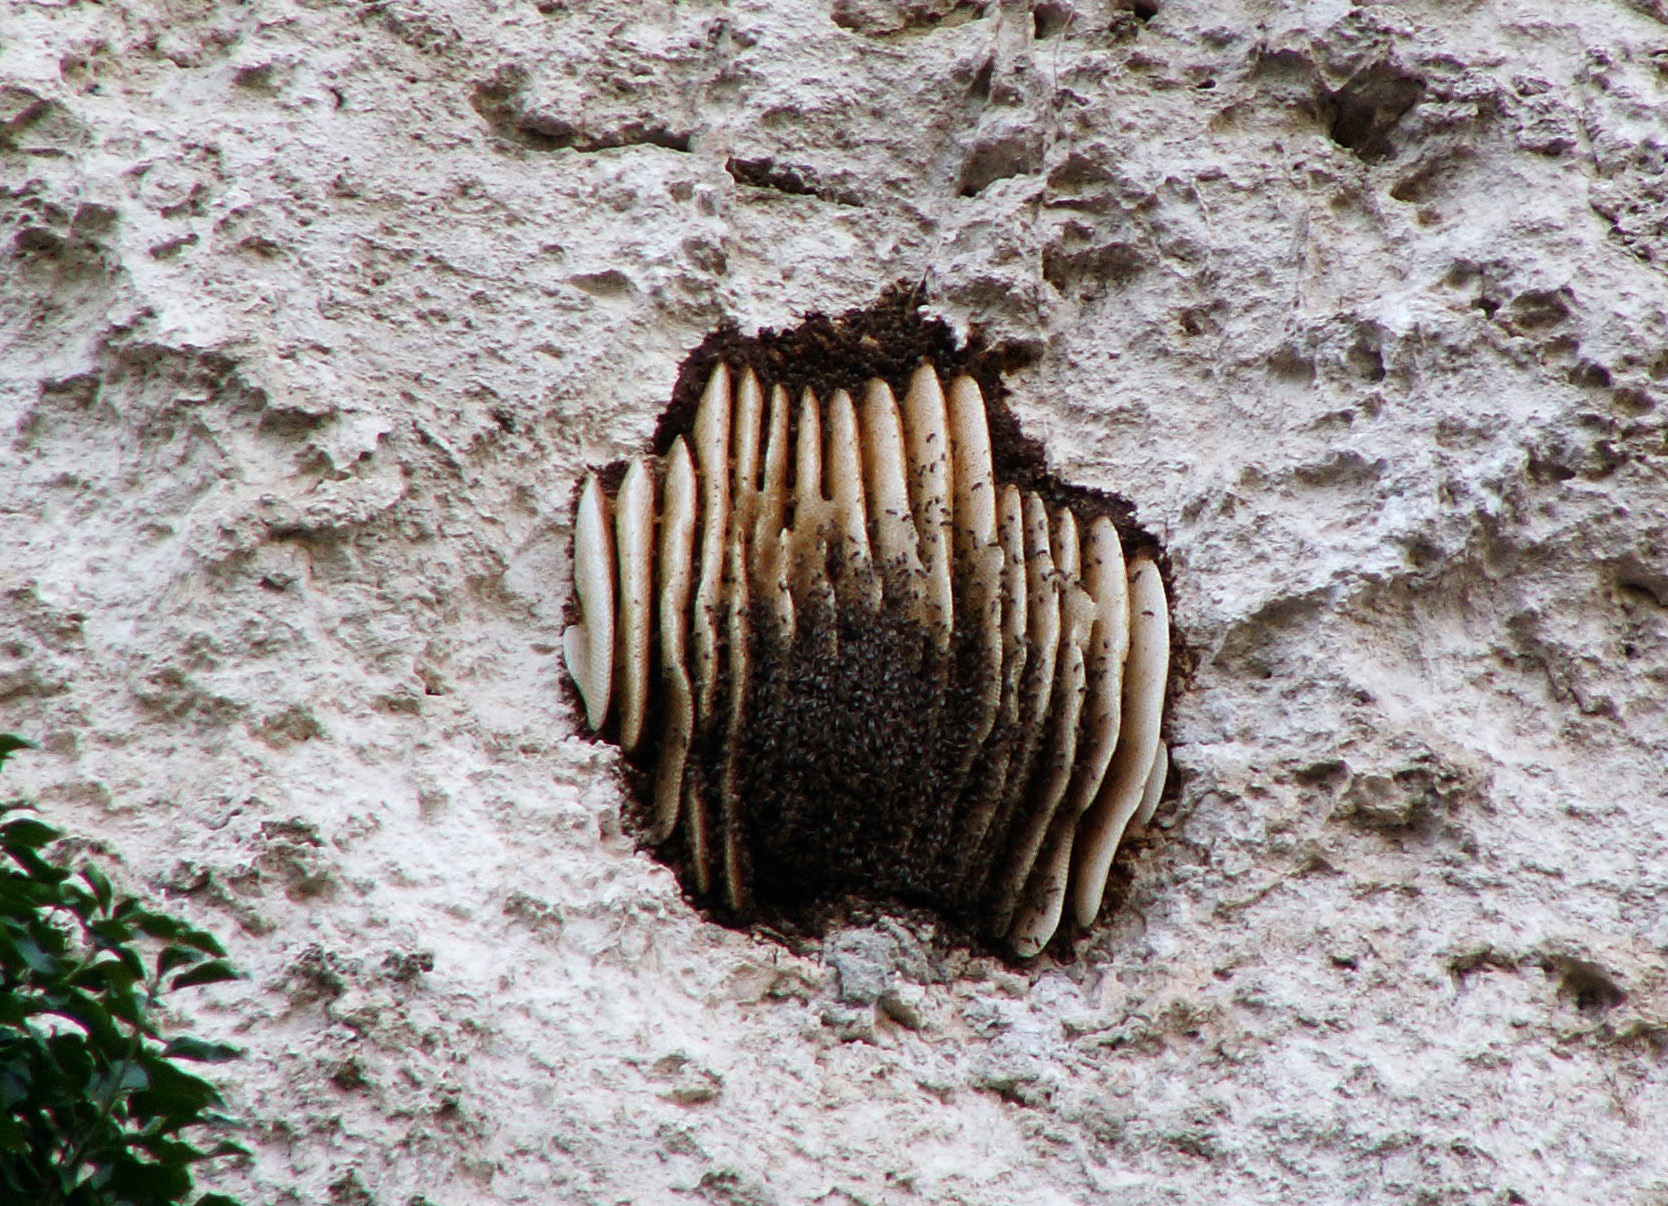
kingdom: Animalia
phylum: Arthropoda
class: Insecta
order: Hymenoptera
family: Apidae
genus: Apis
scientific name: Apis mellifera
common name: Honey bee
